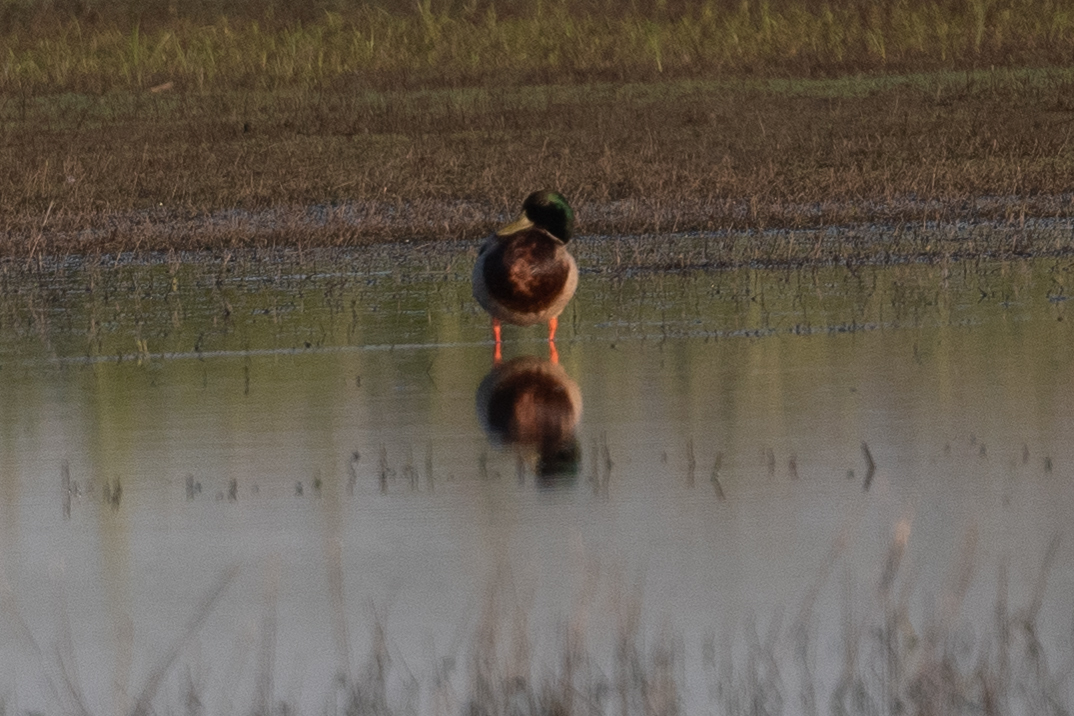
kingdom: Animalia
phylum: Chordata
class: Aves
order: Anseriformes
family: Anatidae
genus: Anas
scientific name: Anas platyrhynchos
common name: Mallard
